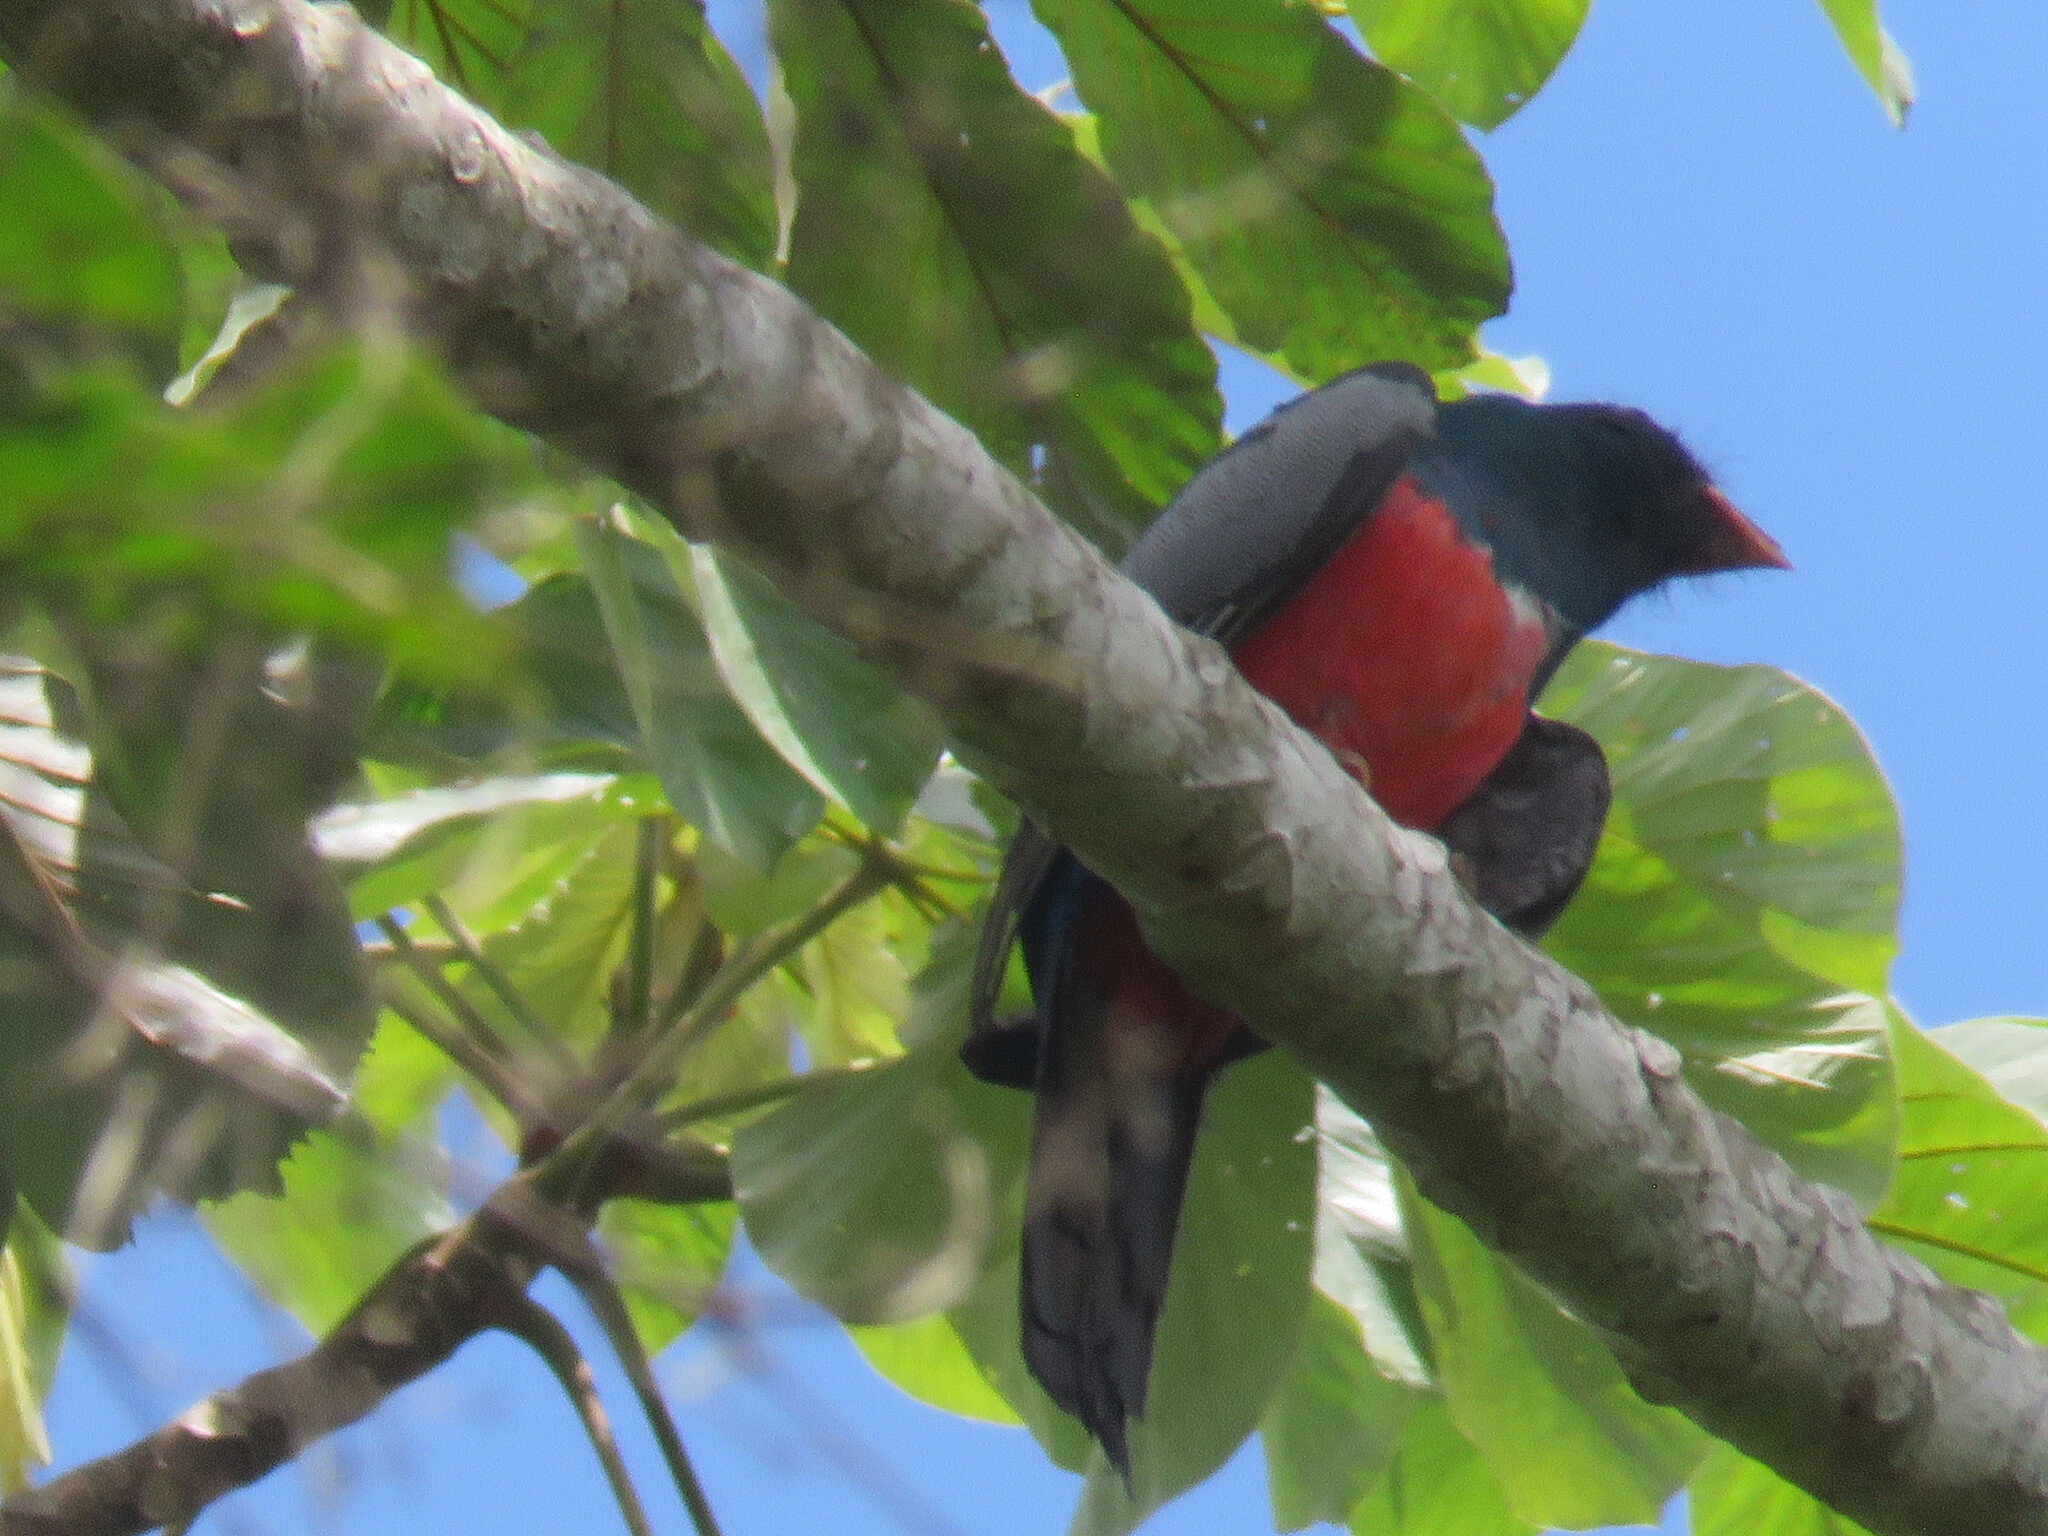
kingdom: Animalia
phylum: Chordata
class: Aves
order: Trogoniformes
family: Trogonidae
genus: Trogon
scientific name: Trogon melanurus
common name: Black-tailed trogon
